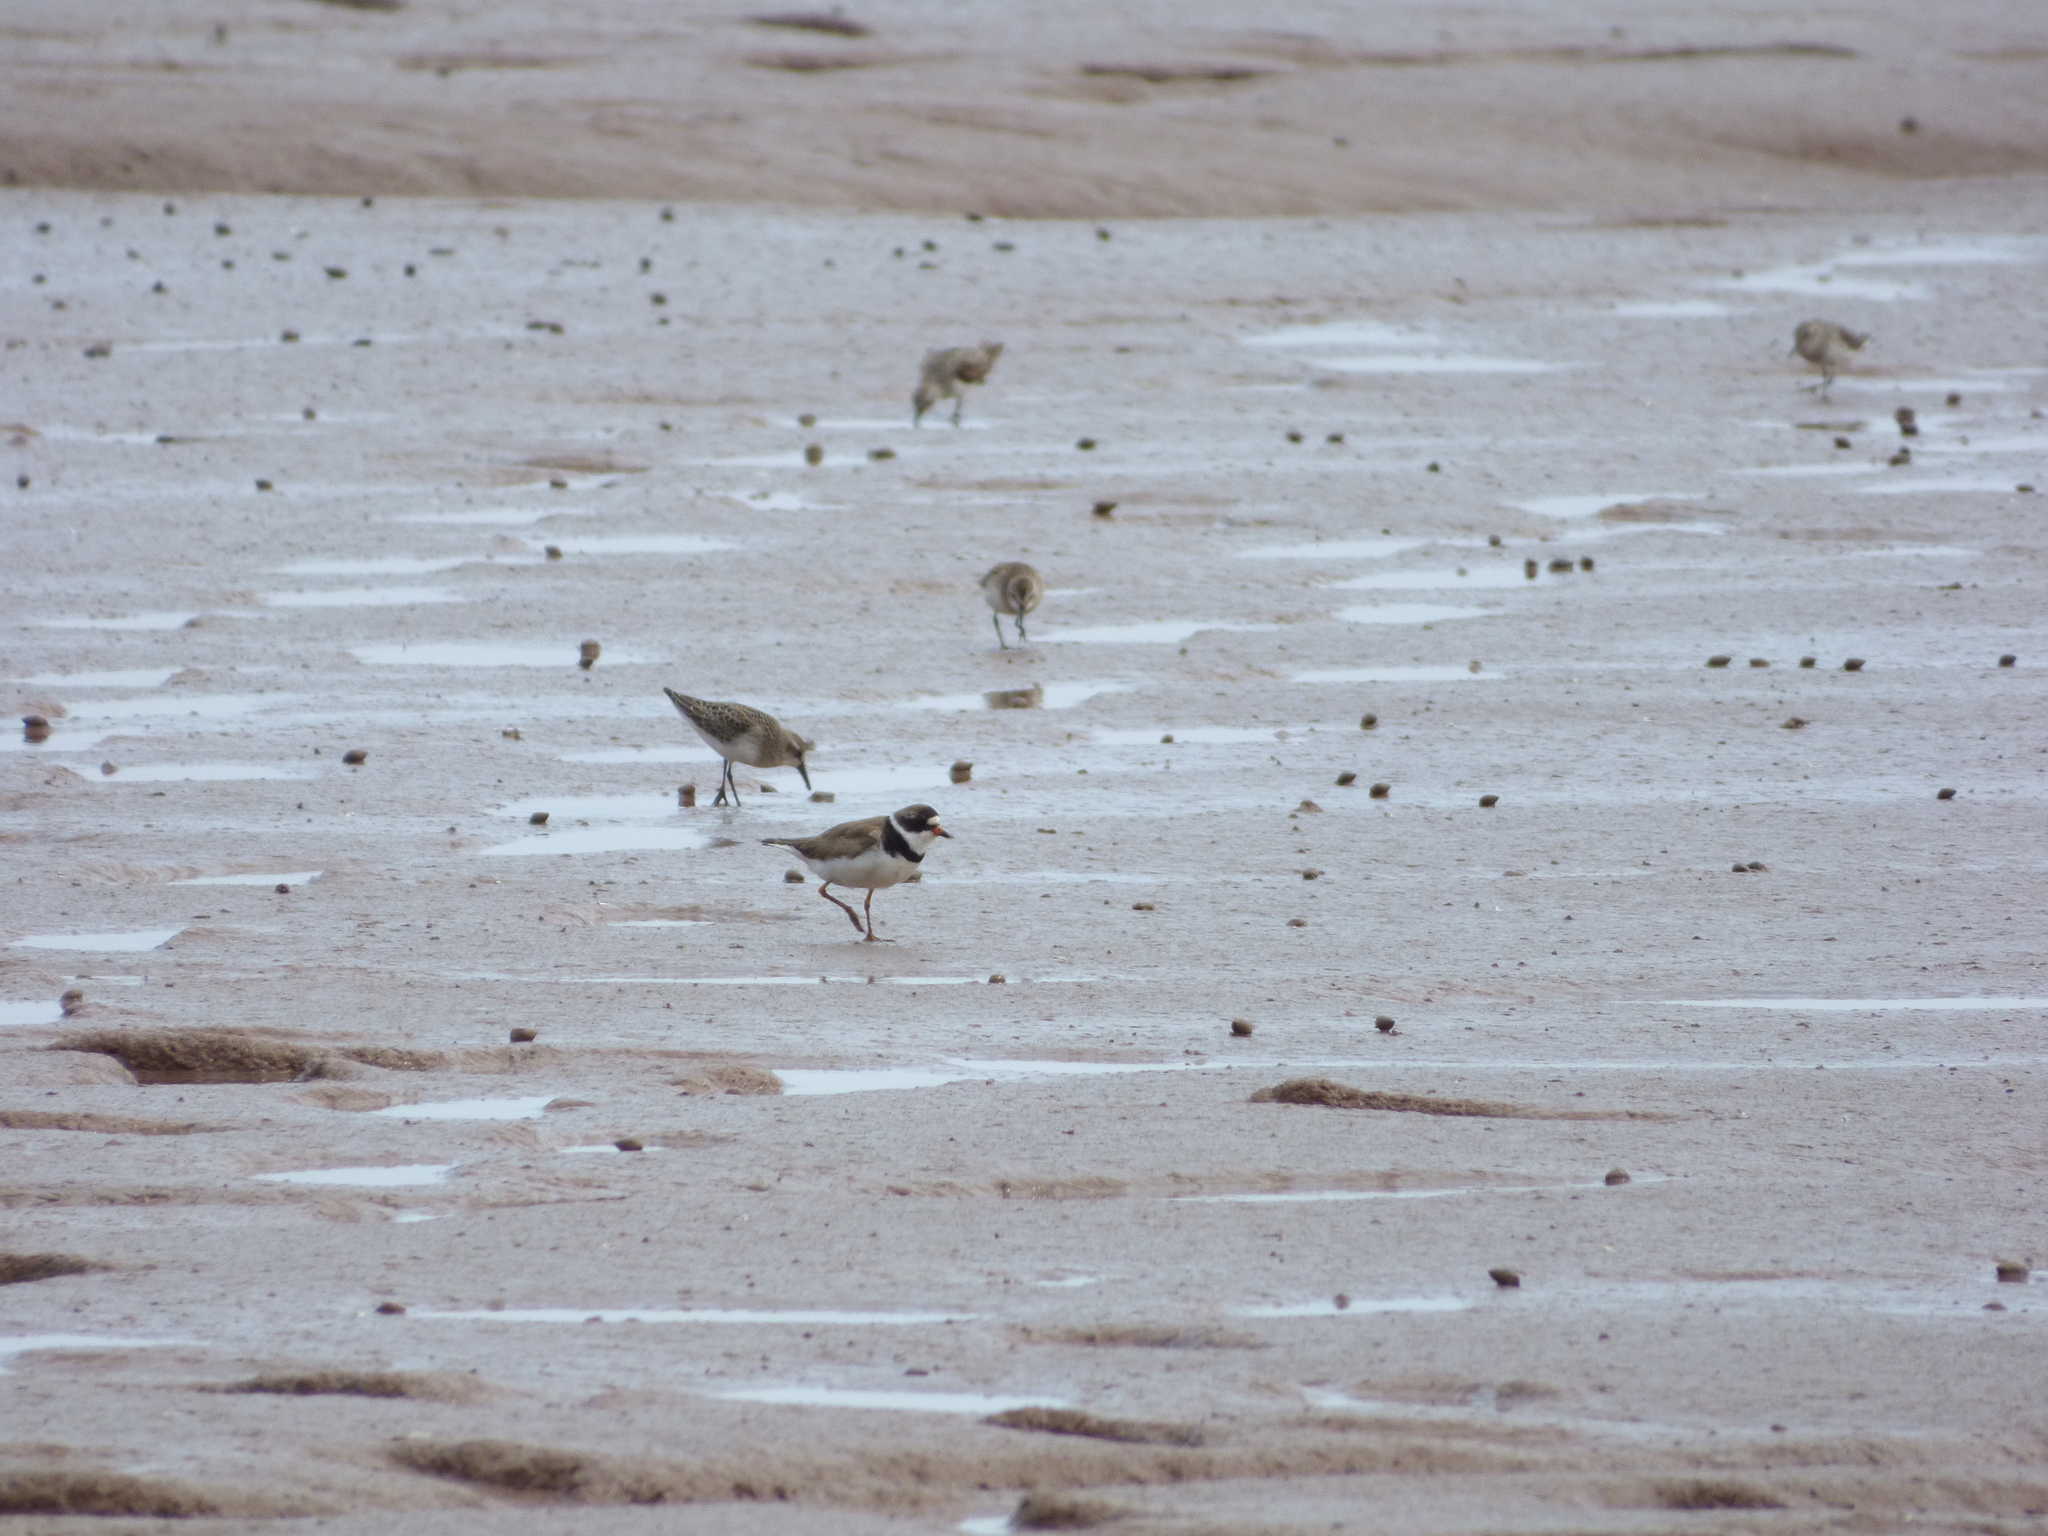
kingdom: Animalia
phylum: Chordata
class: Aves
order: Charadriiformes
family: Charadriidae
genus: Charadrius
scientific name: Charadrius semipalmatus
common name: Semipalmated plover
